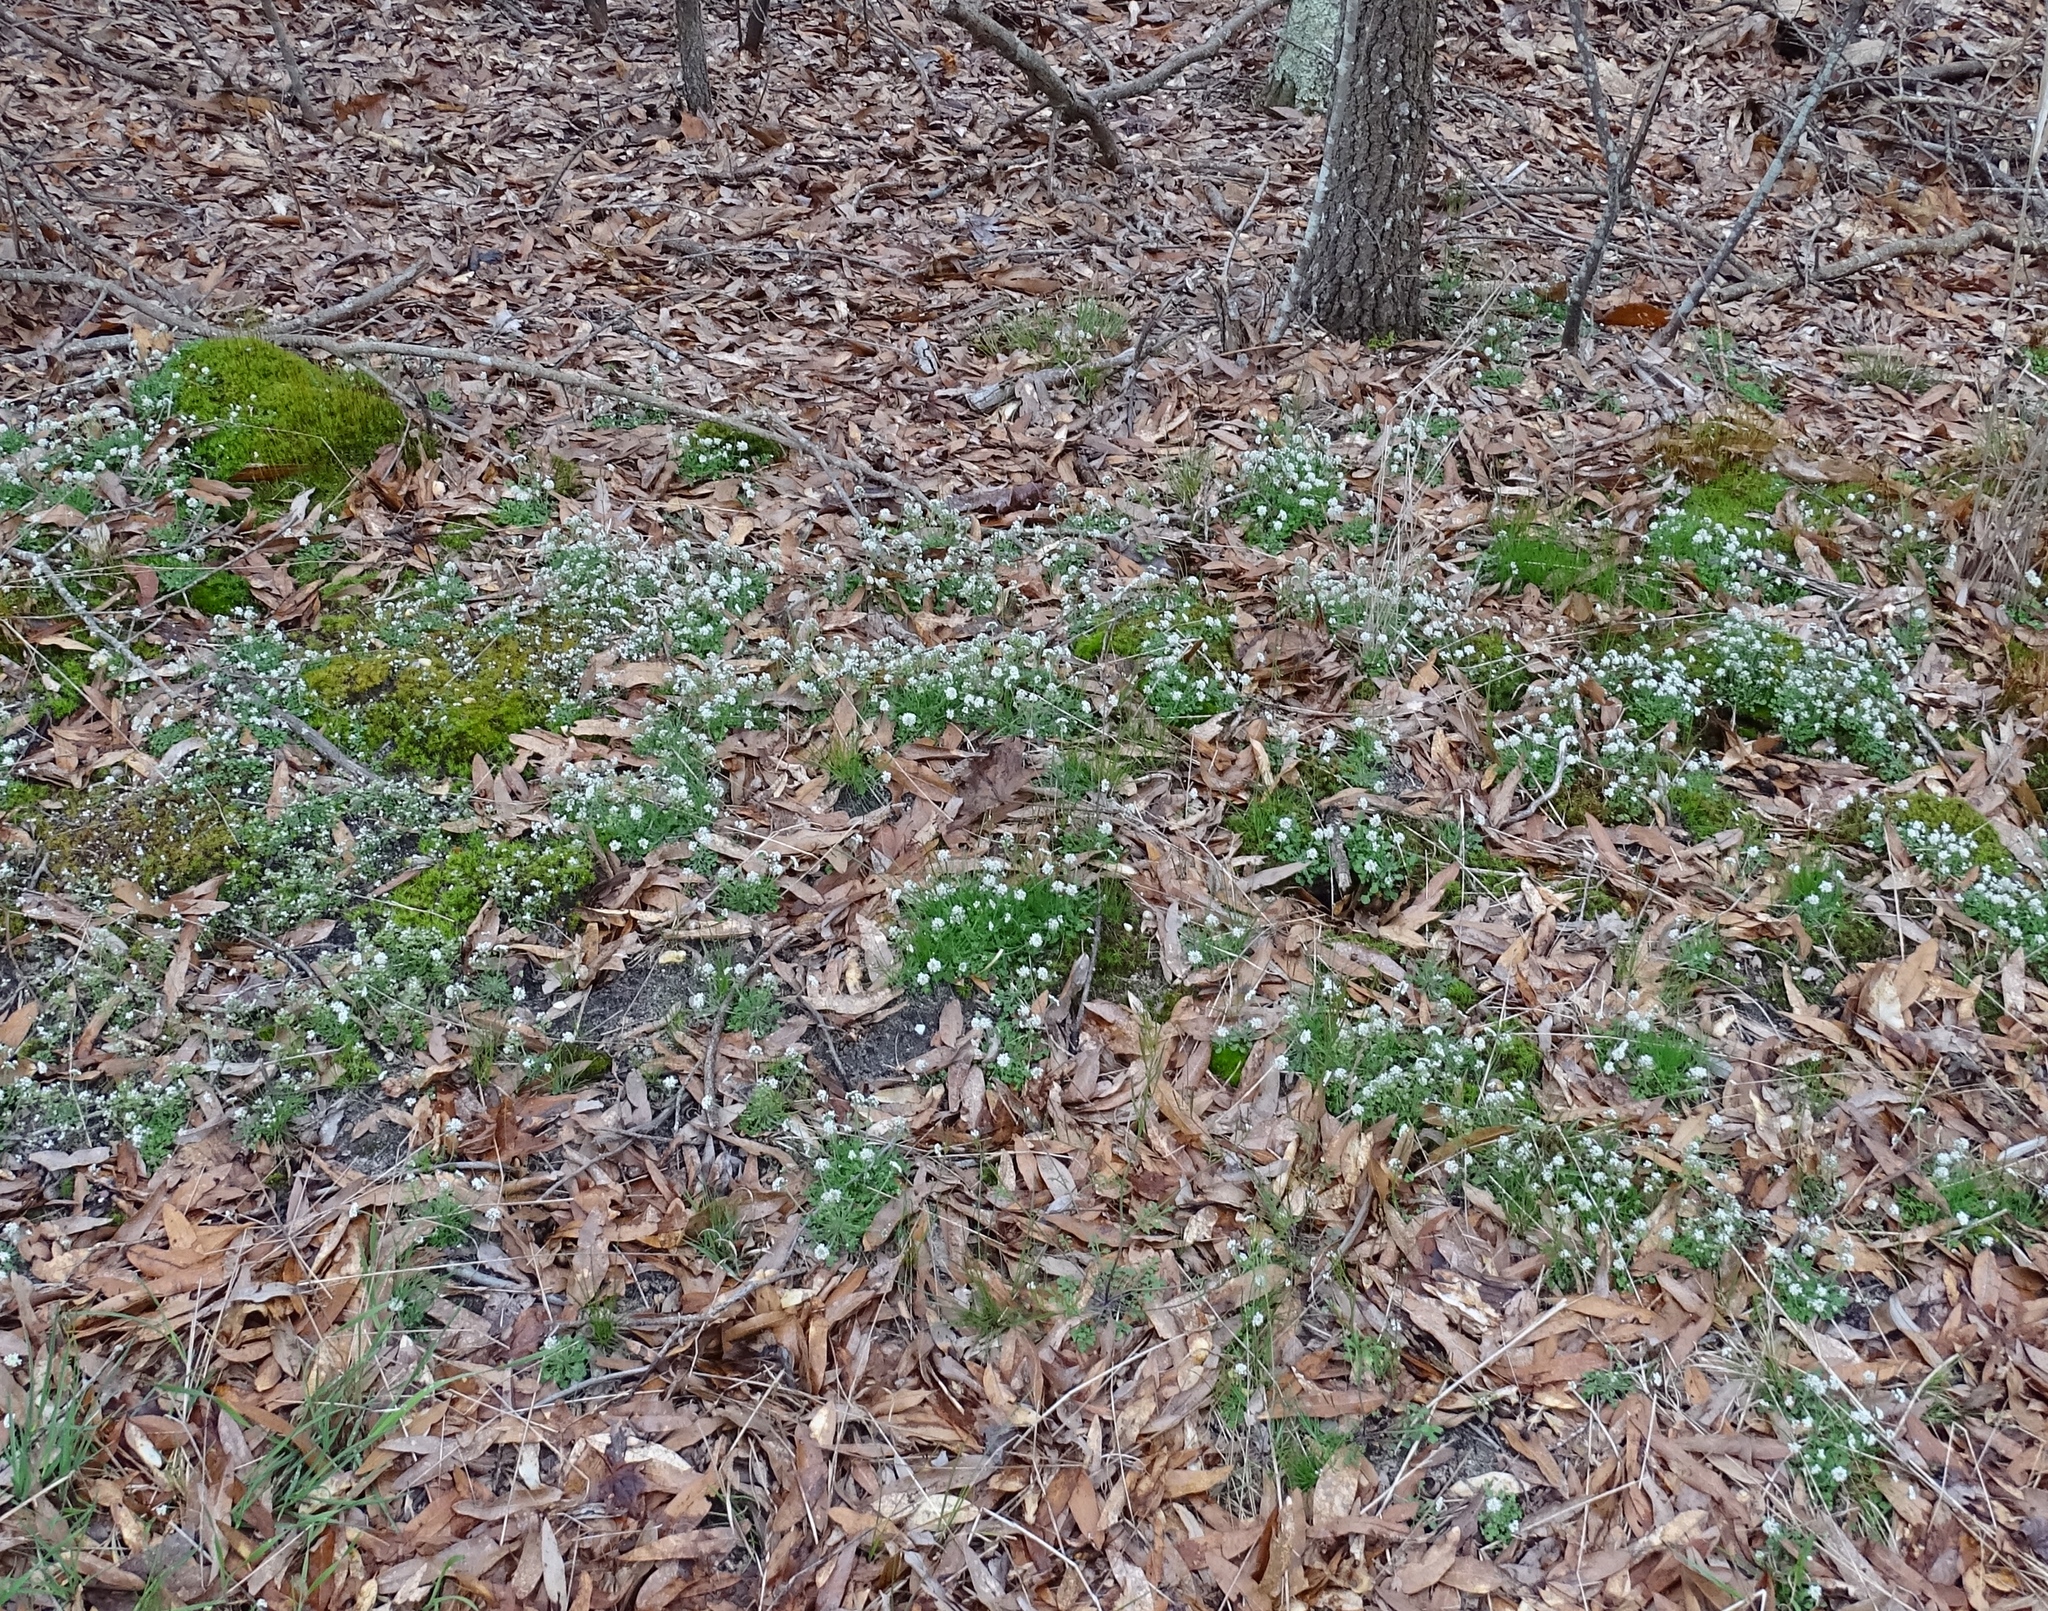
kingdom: Plantae
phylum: Tracheophyta
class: Magnoliopsida
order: Brassicales
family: Brassicaceae
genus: Teesdalia
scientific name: Teesdalia nudicaulis
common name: Shepherd's cress
